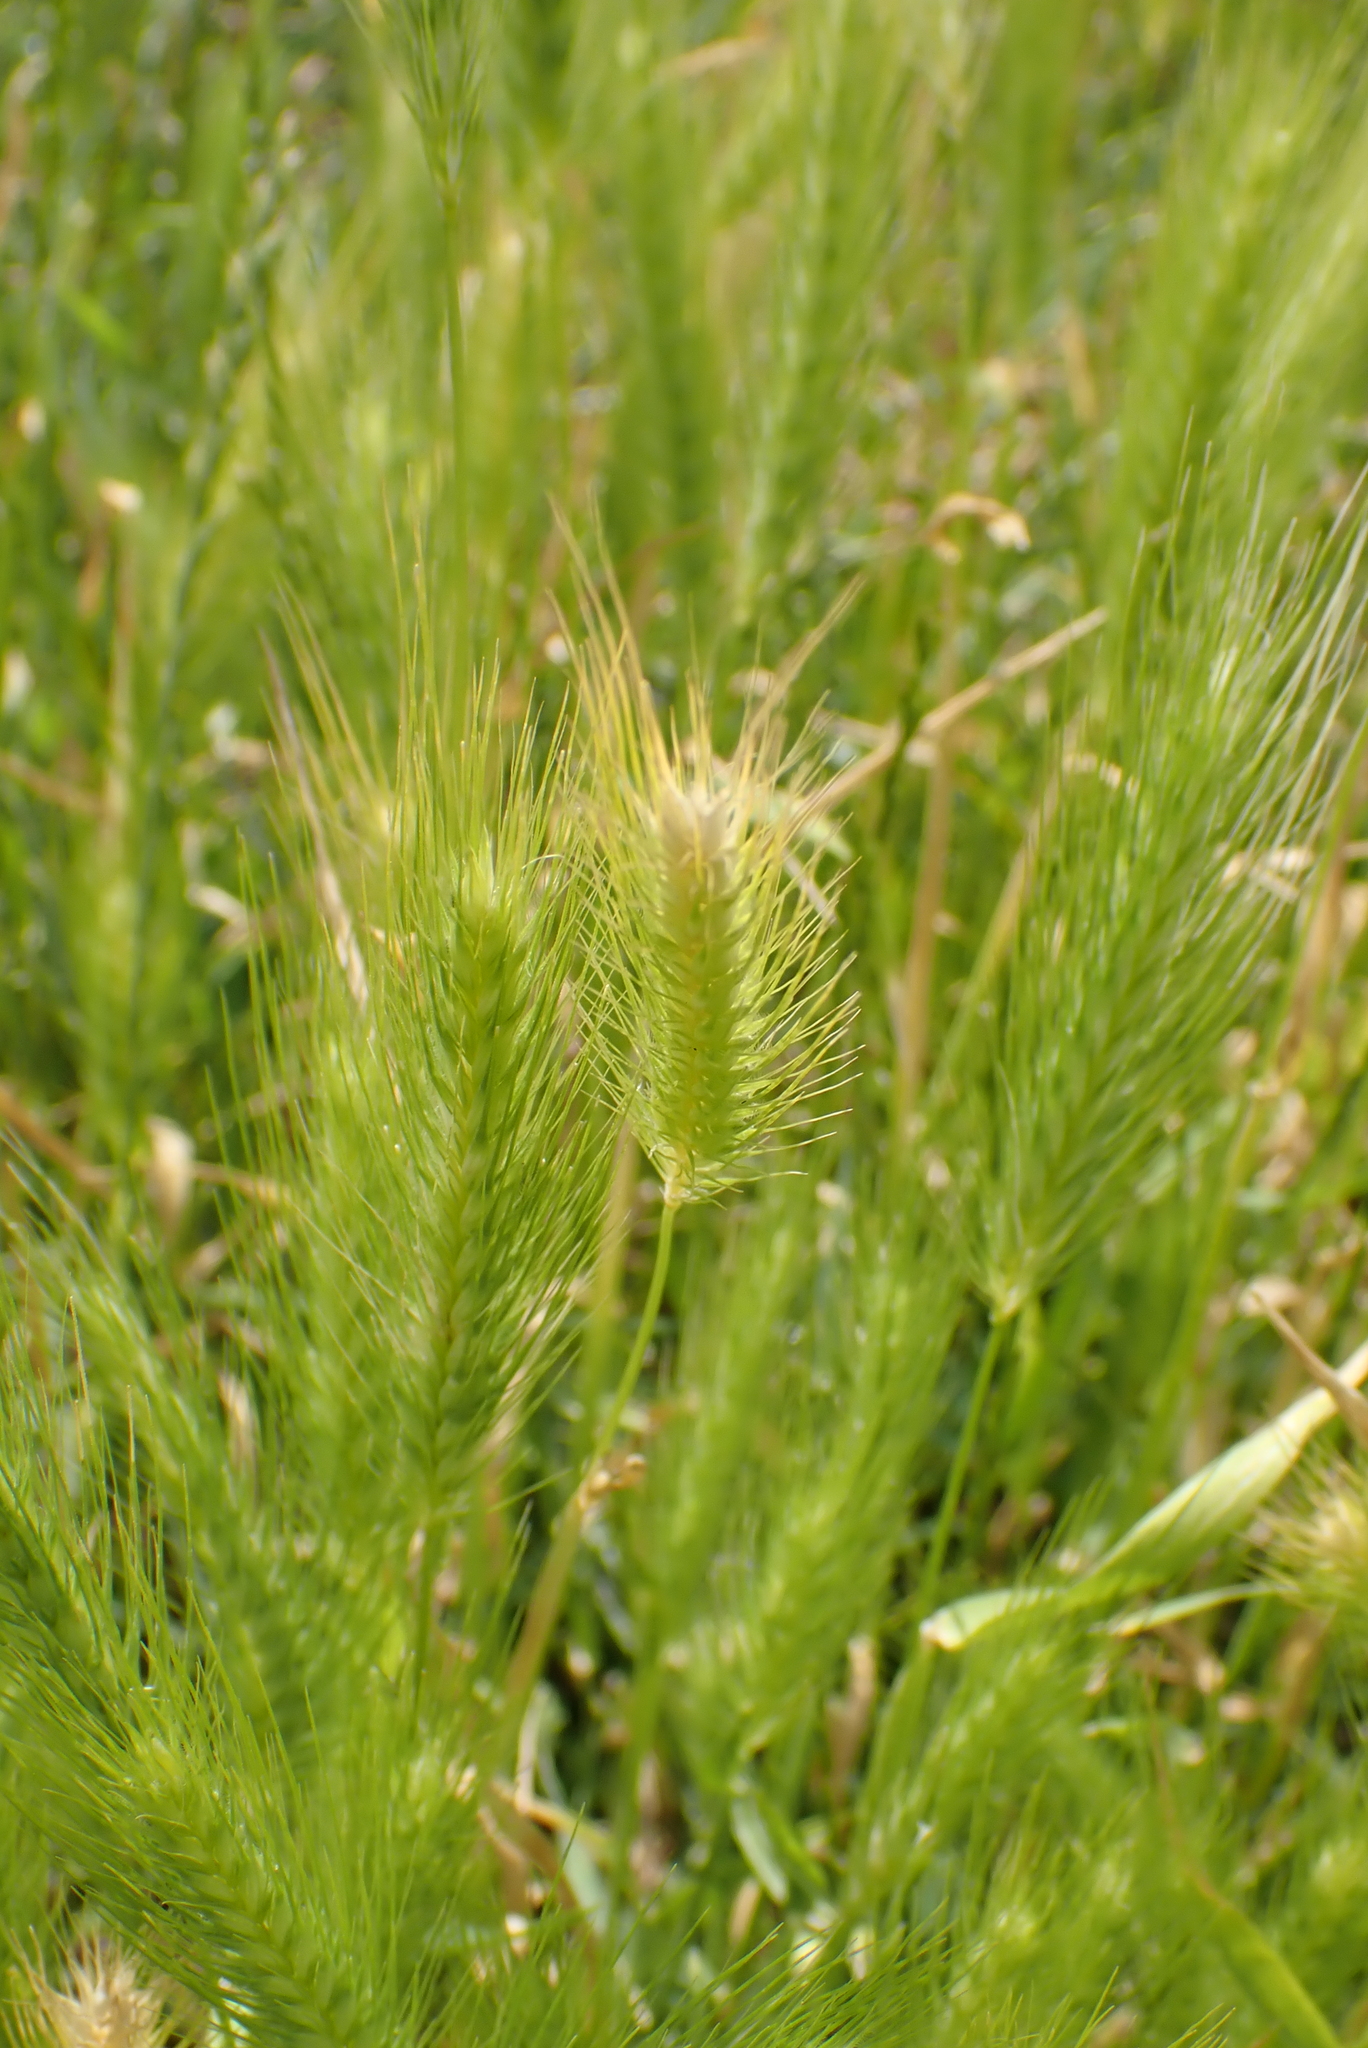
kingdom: Plantae
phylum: Tracheophyta
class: Liliopsida
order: Poales
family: Poaceae
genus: Hordeum
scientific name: Hordeum murinum
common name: Wall barley
